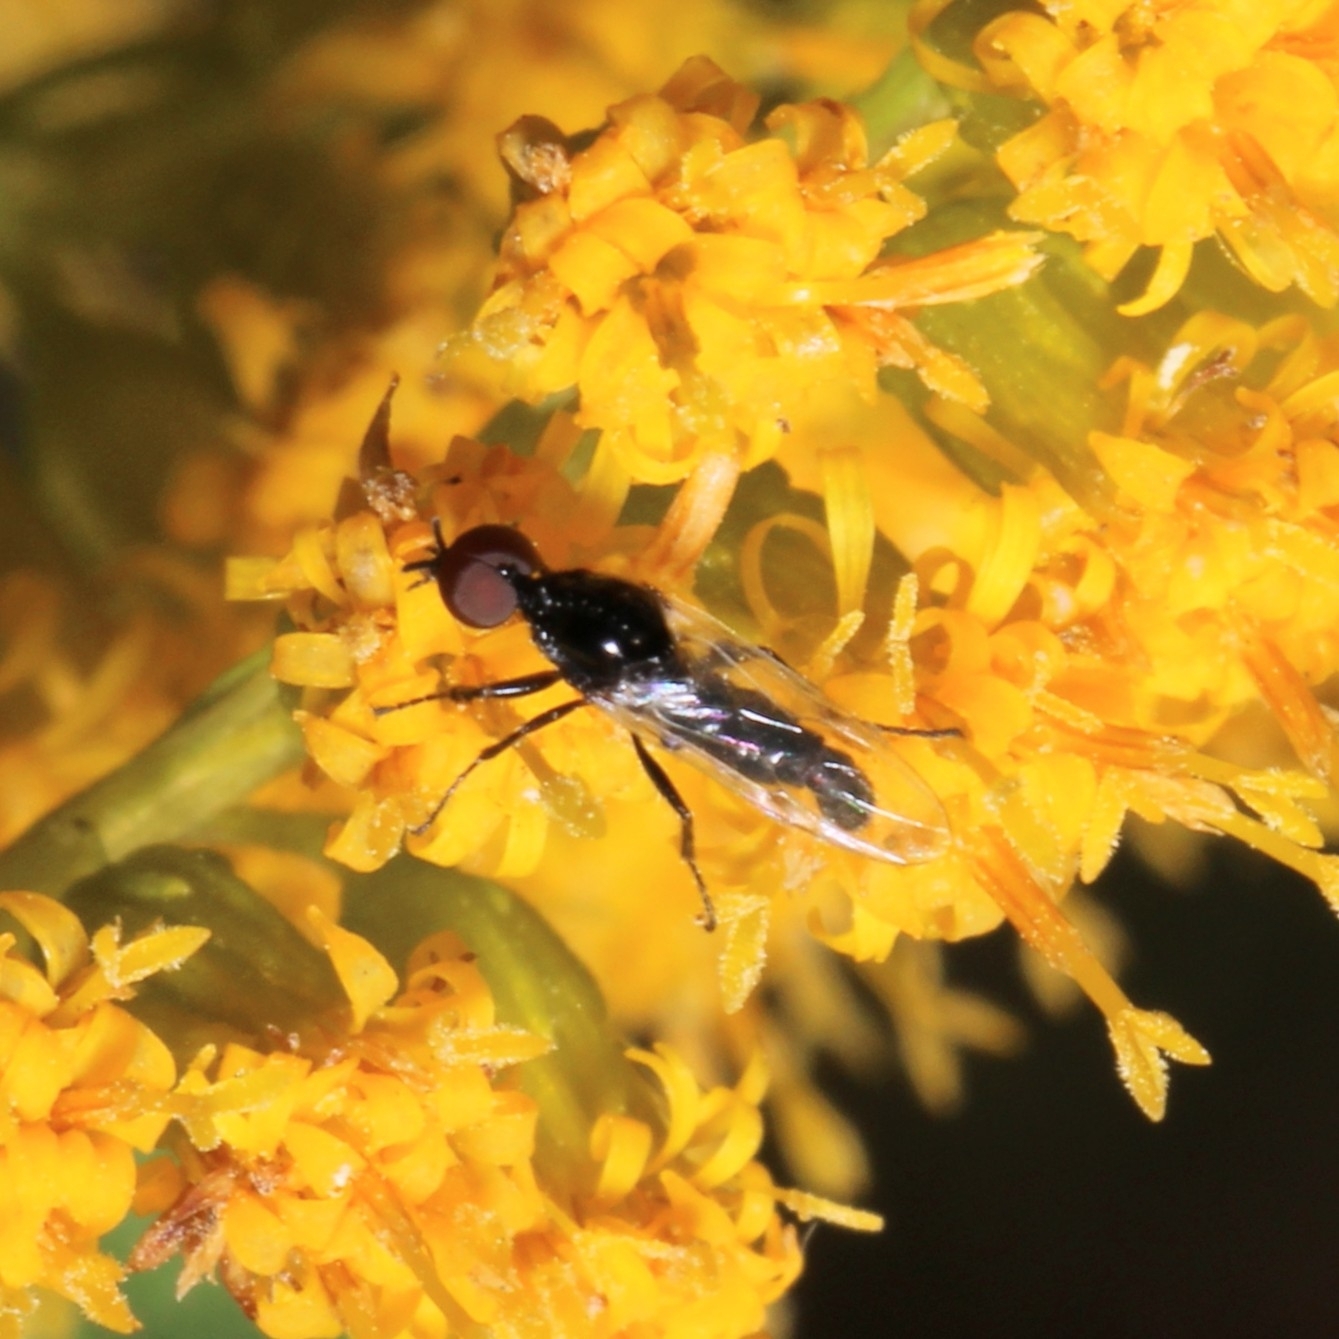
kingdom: Animalia
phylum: Arthropoda
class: Insecta
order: Diptera
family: Bibionidae
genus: Dilophus
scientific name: Dilophus
